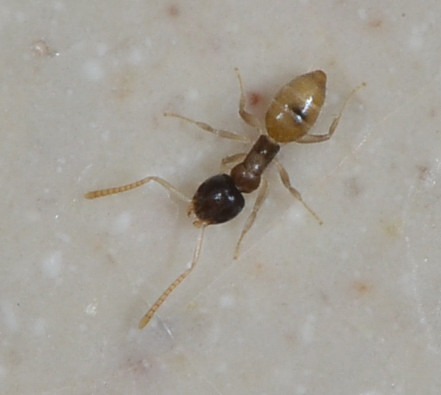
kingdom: Animalia
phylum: Arthropoda
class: Insecta
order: Hymenoptera
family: Formicidae
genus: Tapinoma
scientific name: Tapinoma melanocephalum
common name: Ghost ant
